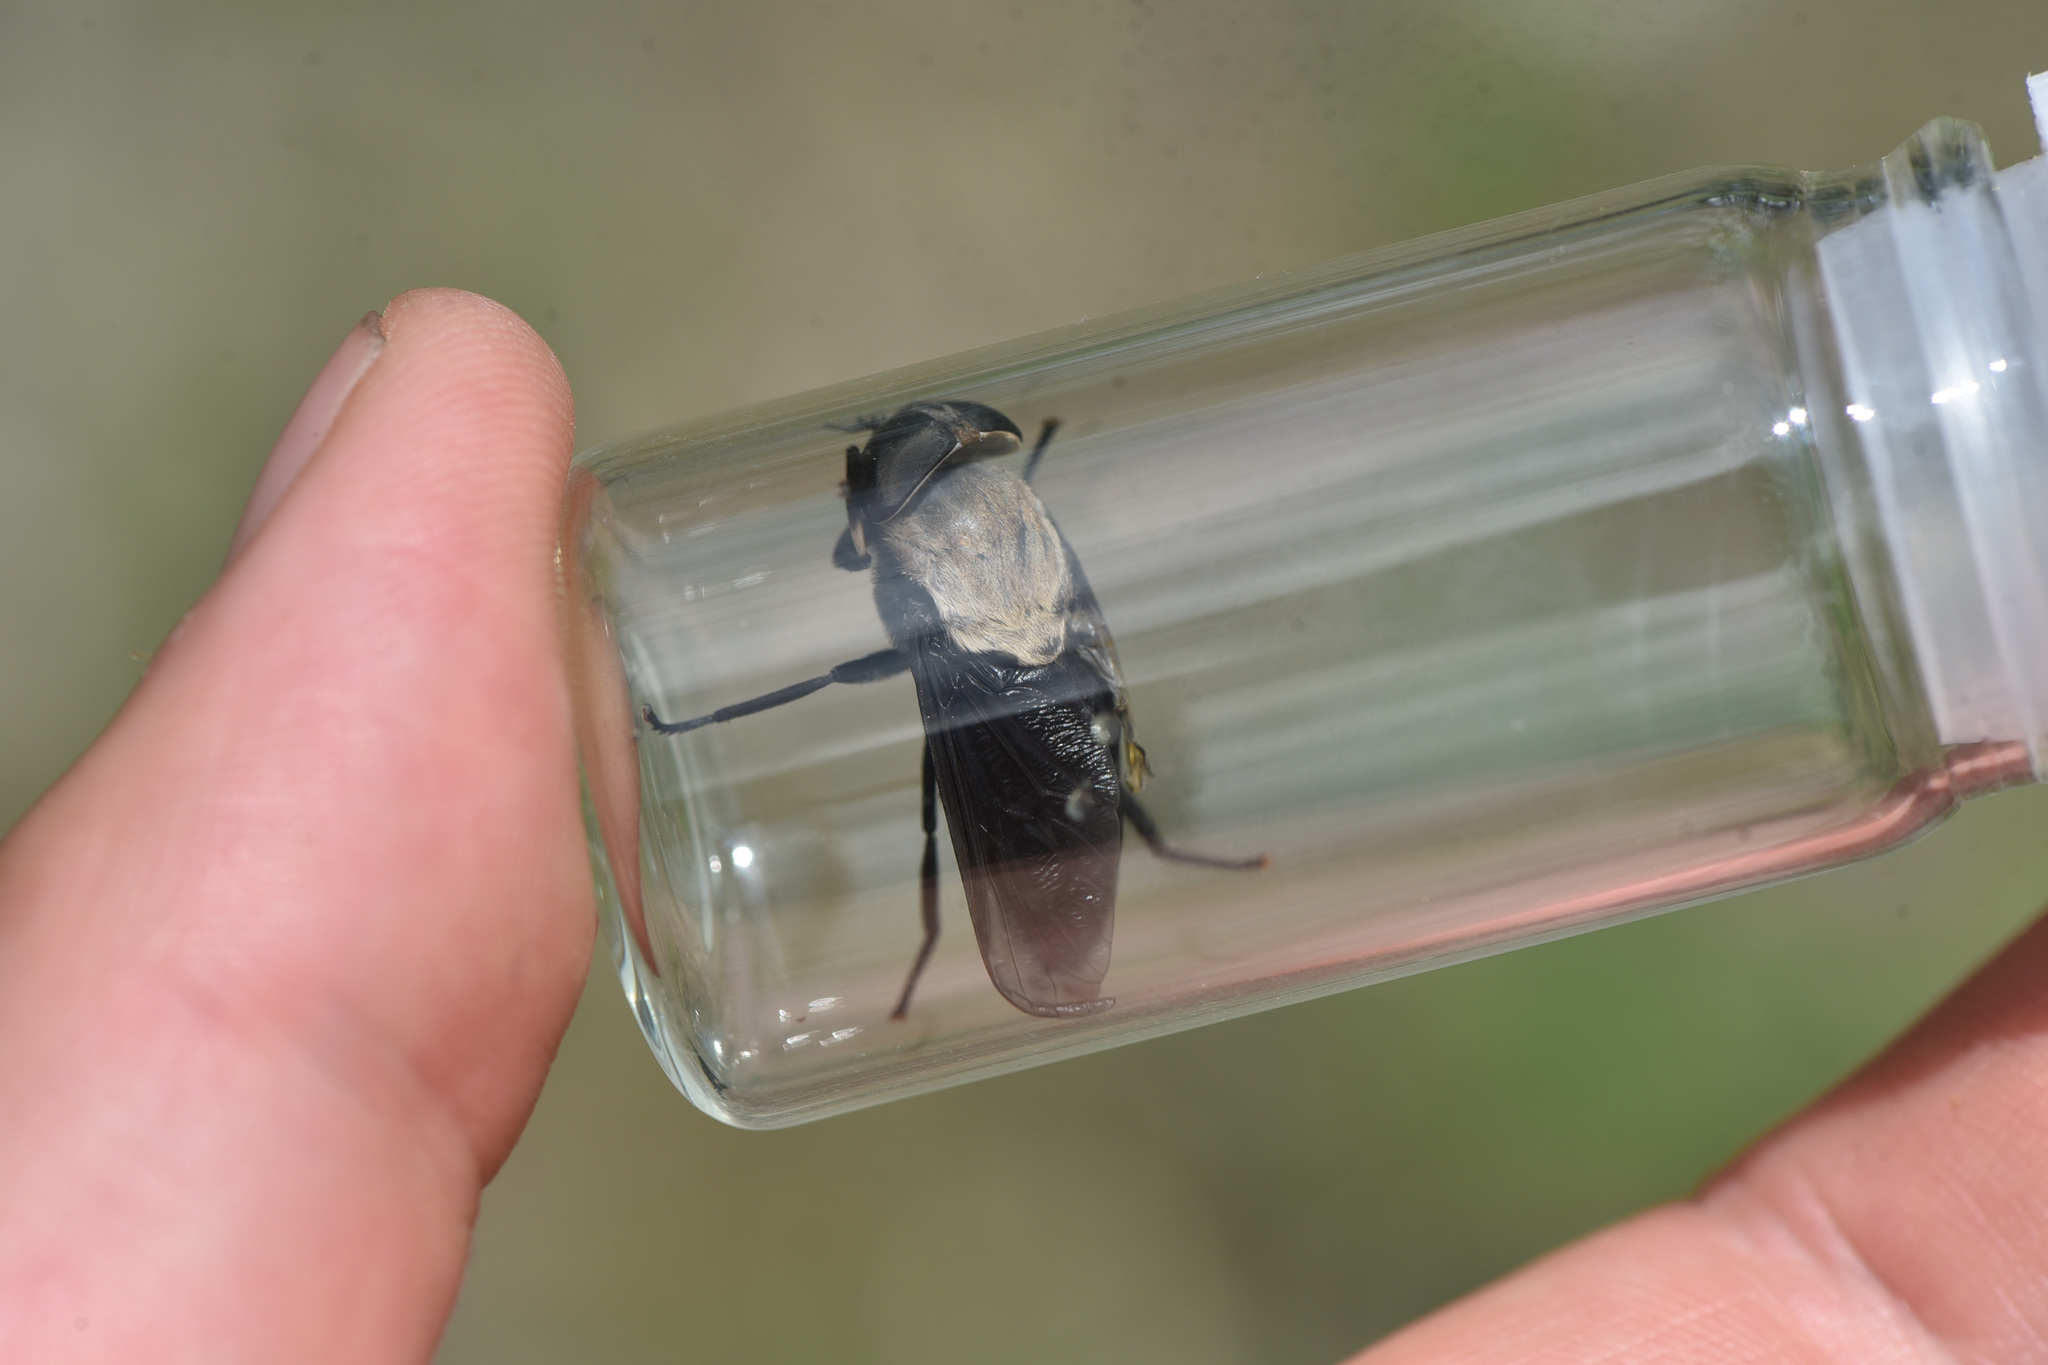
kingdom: Animalia
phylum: Arthropoda
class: Insecta
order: Diptera
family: Tabanidae
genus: Tabanus
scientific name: Tabanus punctifer
